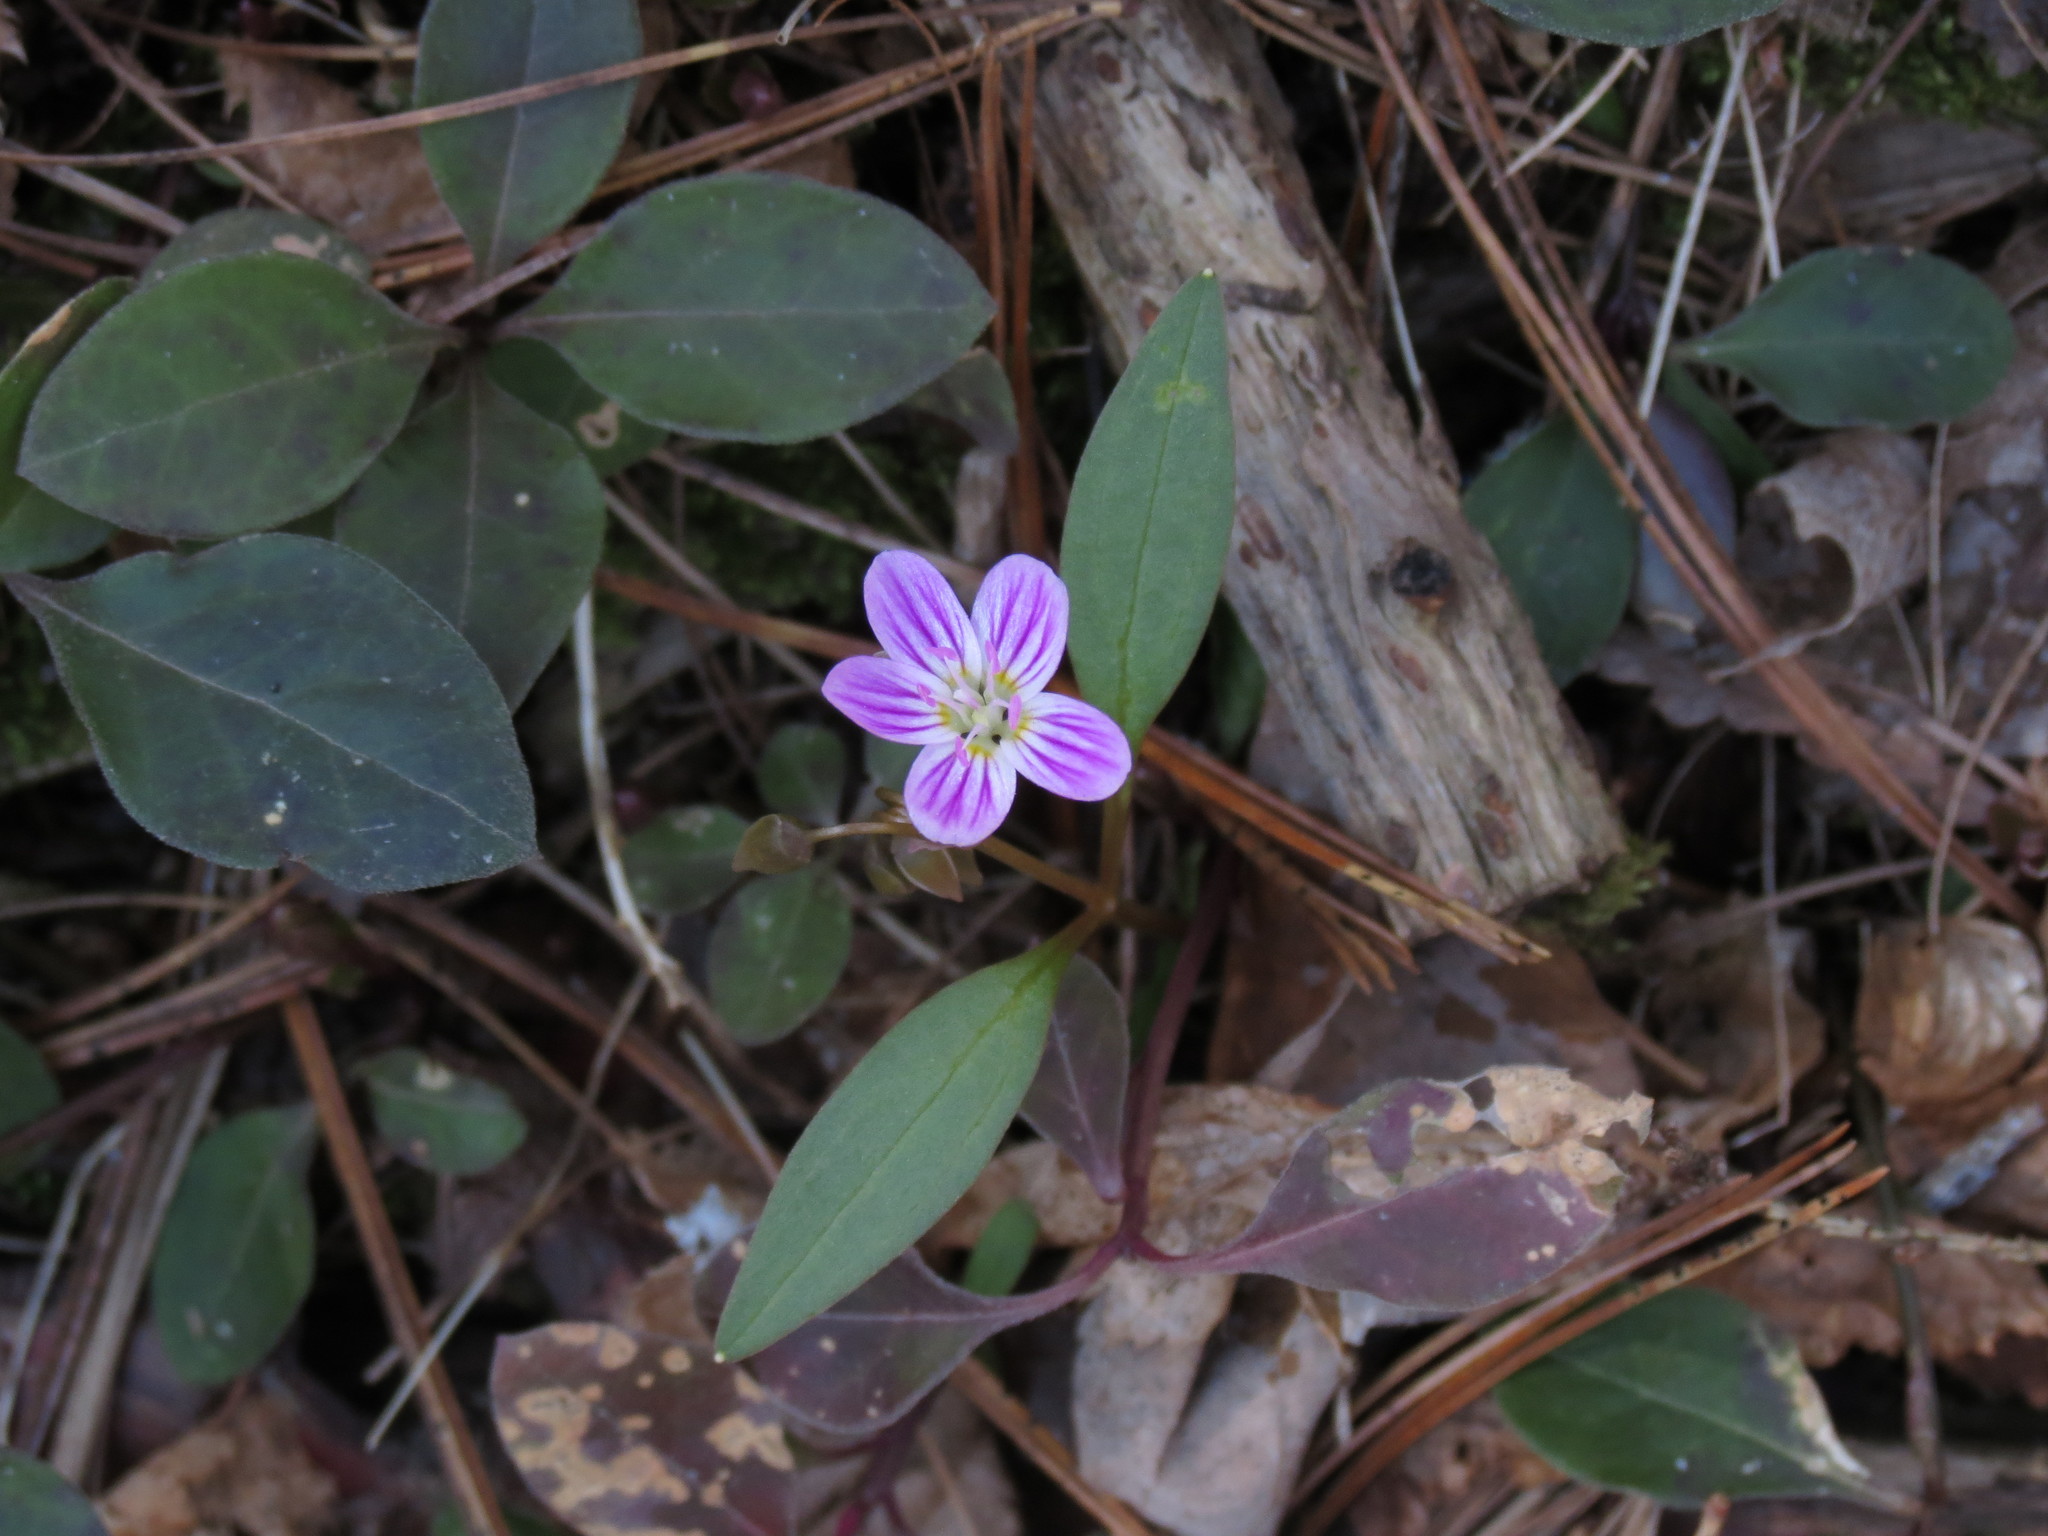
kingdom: Plantae
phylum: Tracheophyta
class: Magnoliopsida
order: Caryophyllales
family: Montiaceae
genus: Claytonia
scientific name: Claytonia caroliniana
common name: Carolina spring beauty
